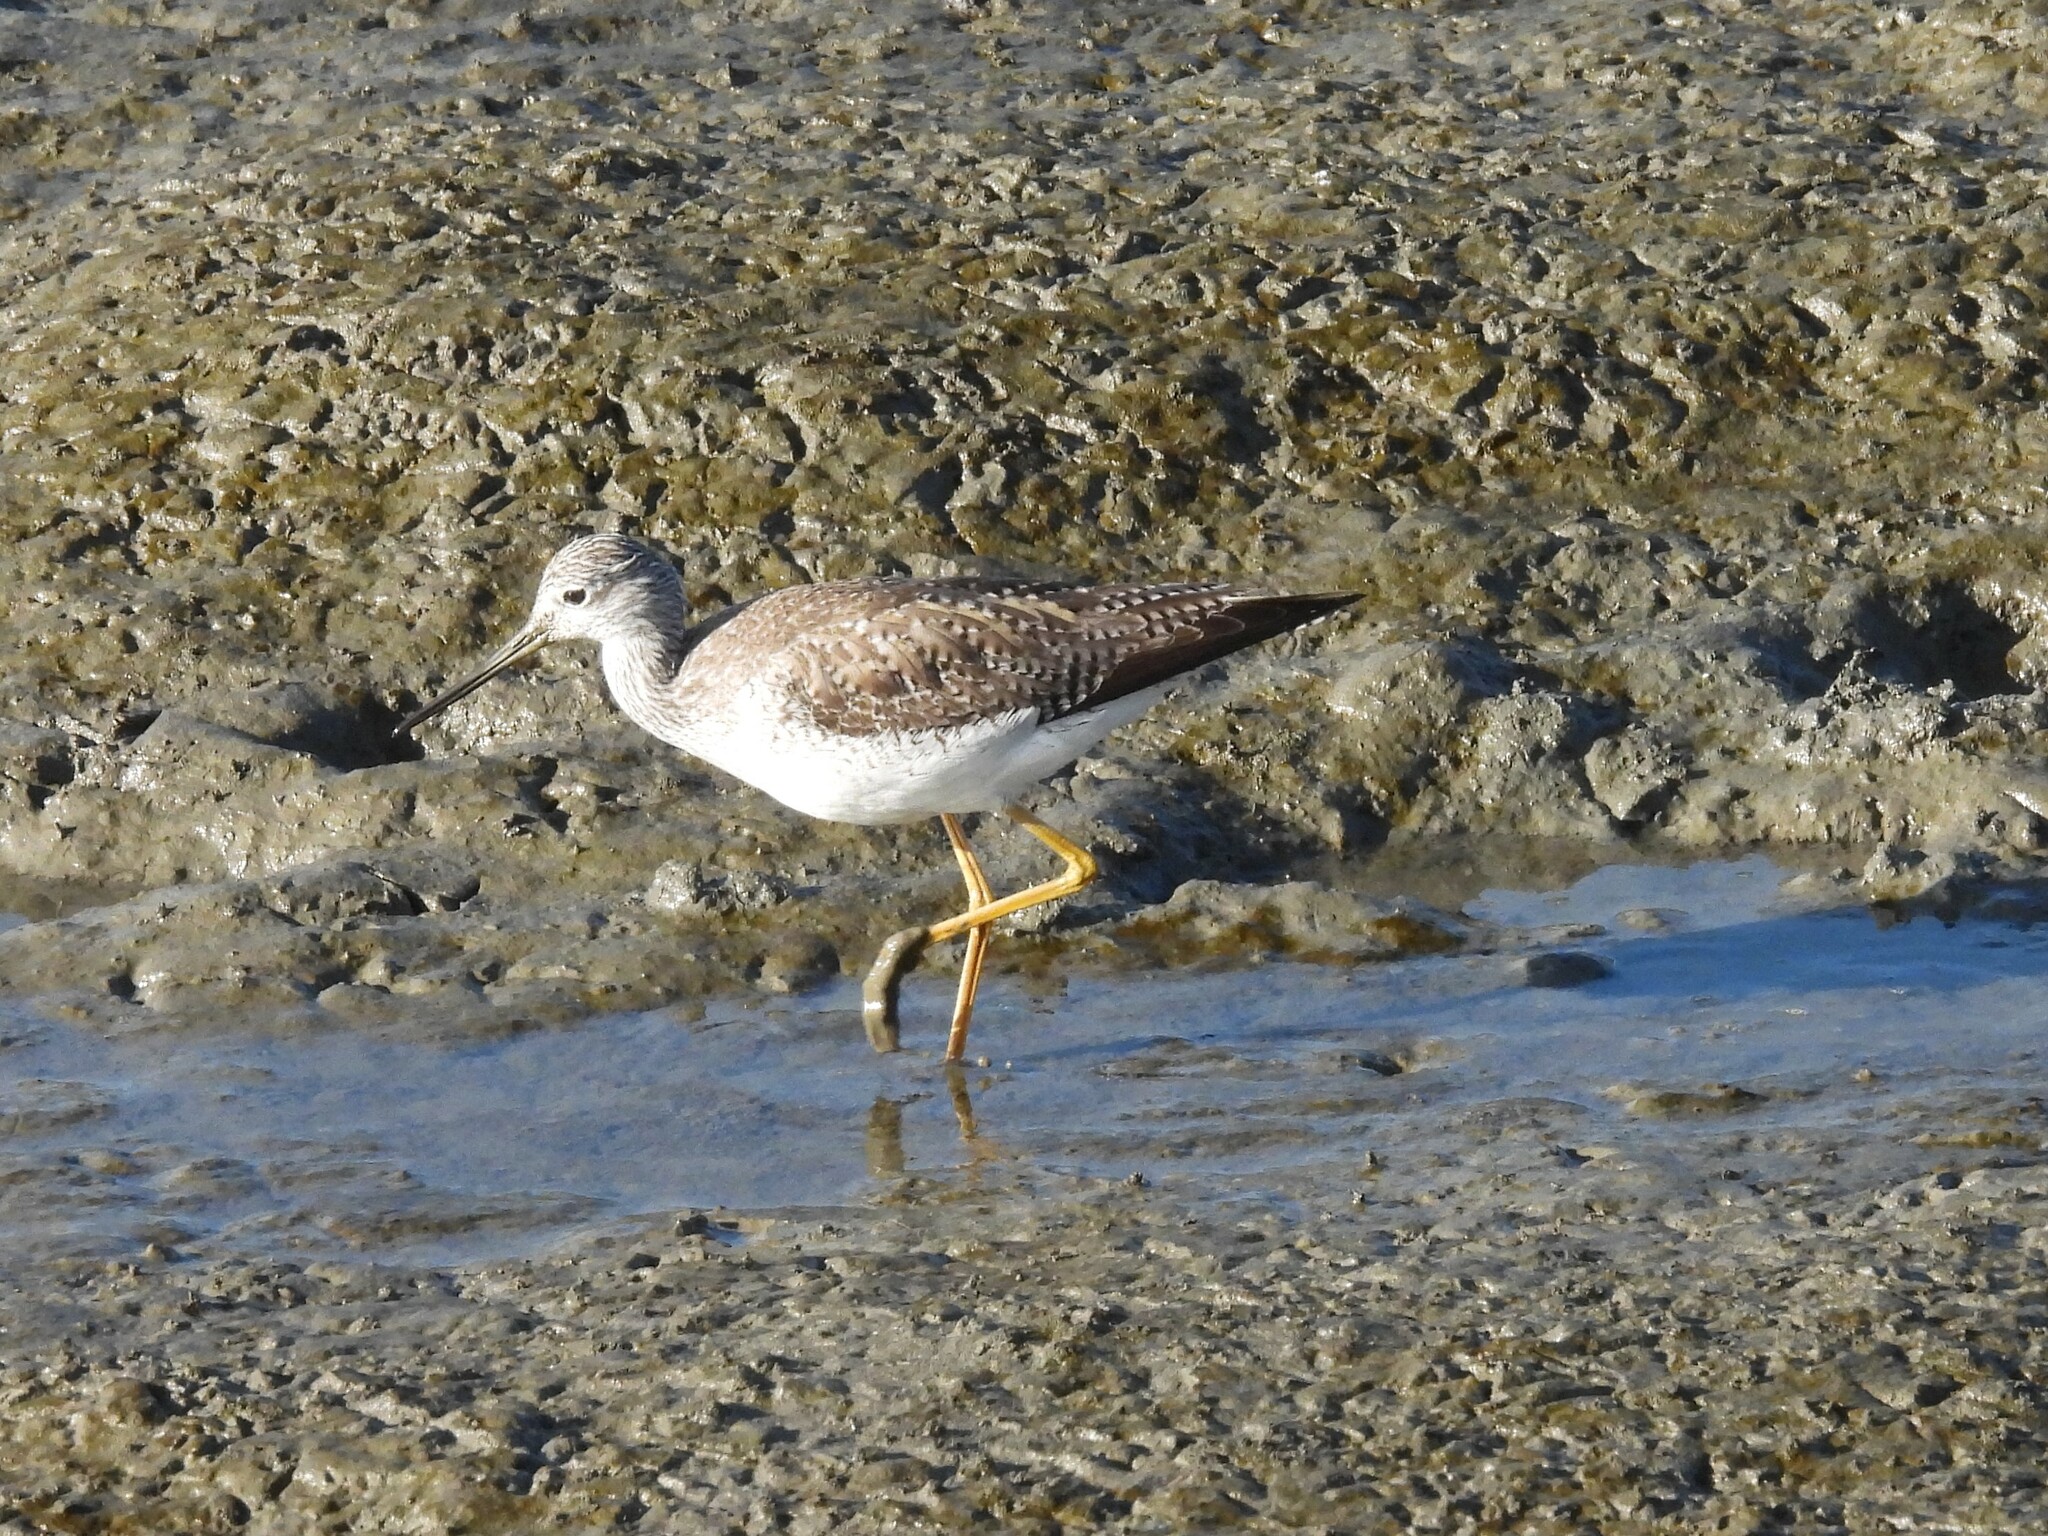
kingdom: Animalia
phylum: Chordata
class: Aves
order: Charadriiformes
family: Scolopacidae
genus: Tringa
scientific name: Tringa melanoleuca
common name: Greater yellowlegs
